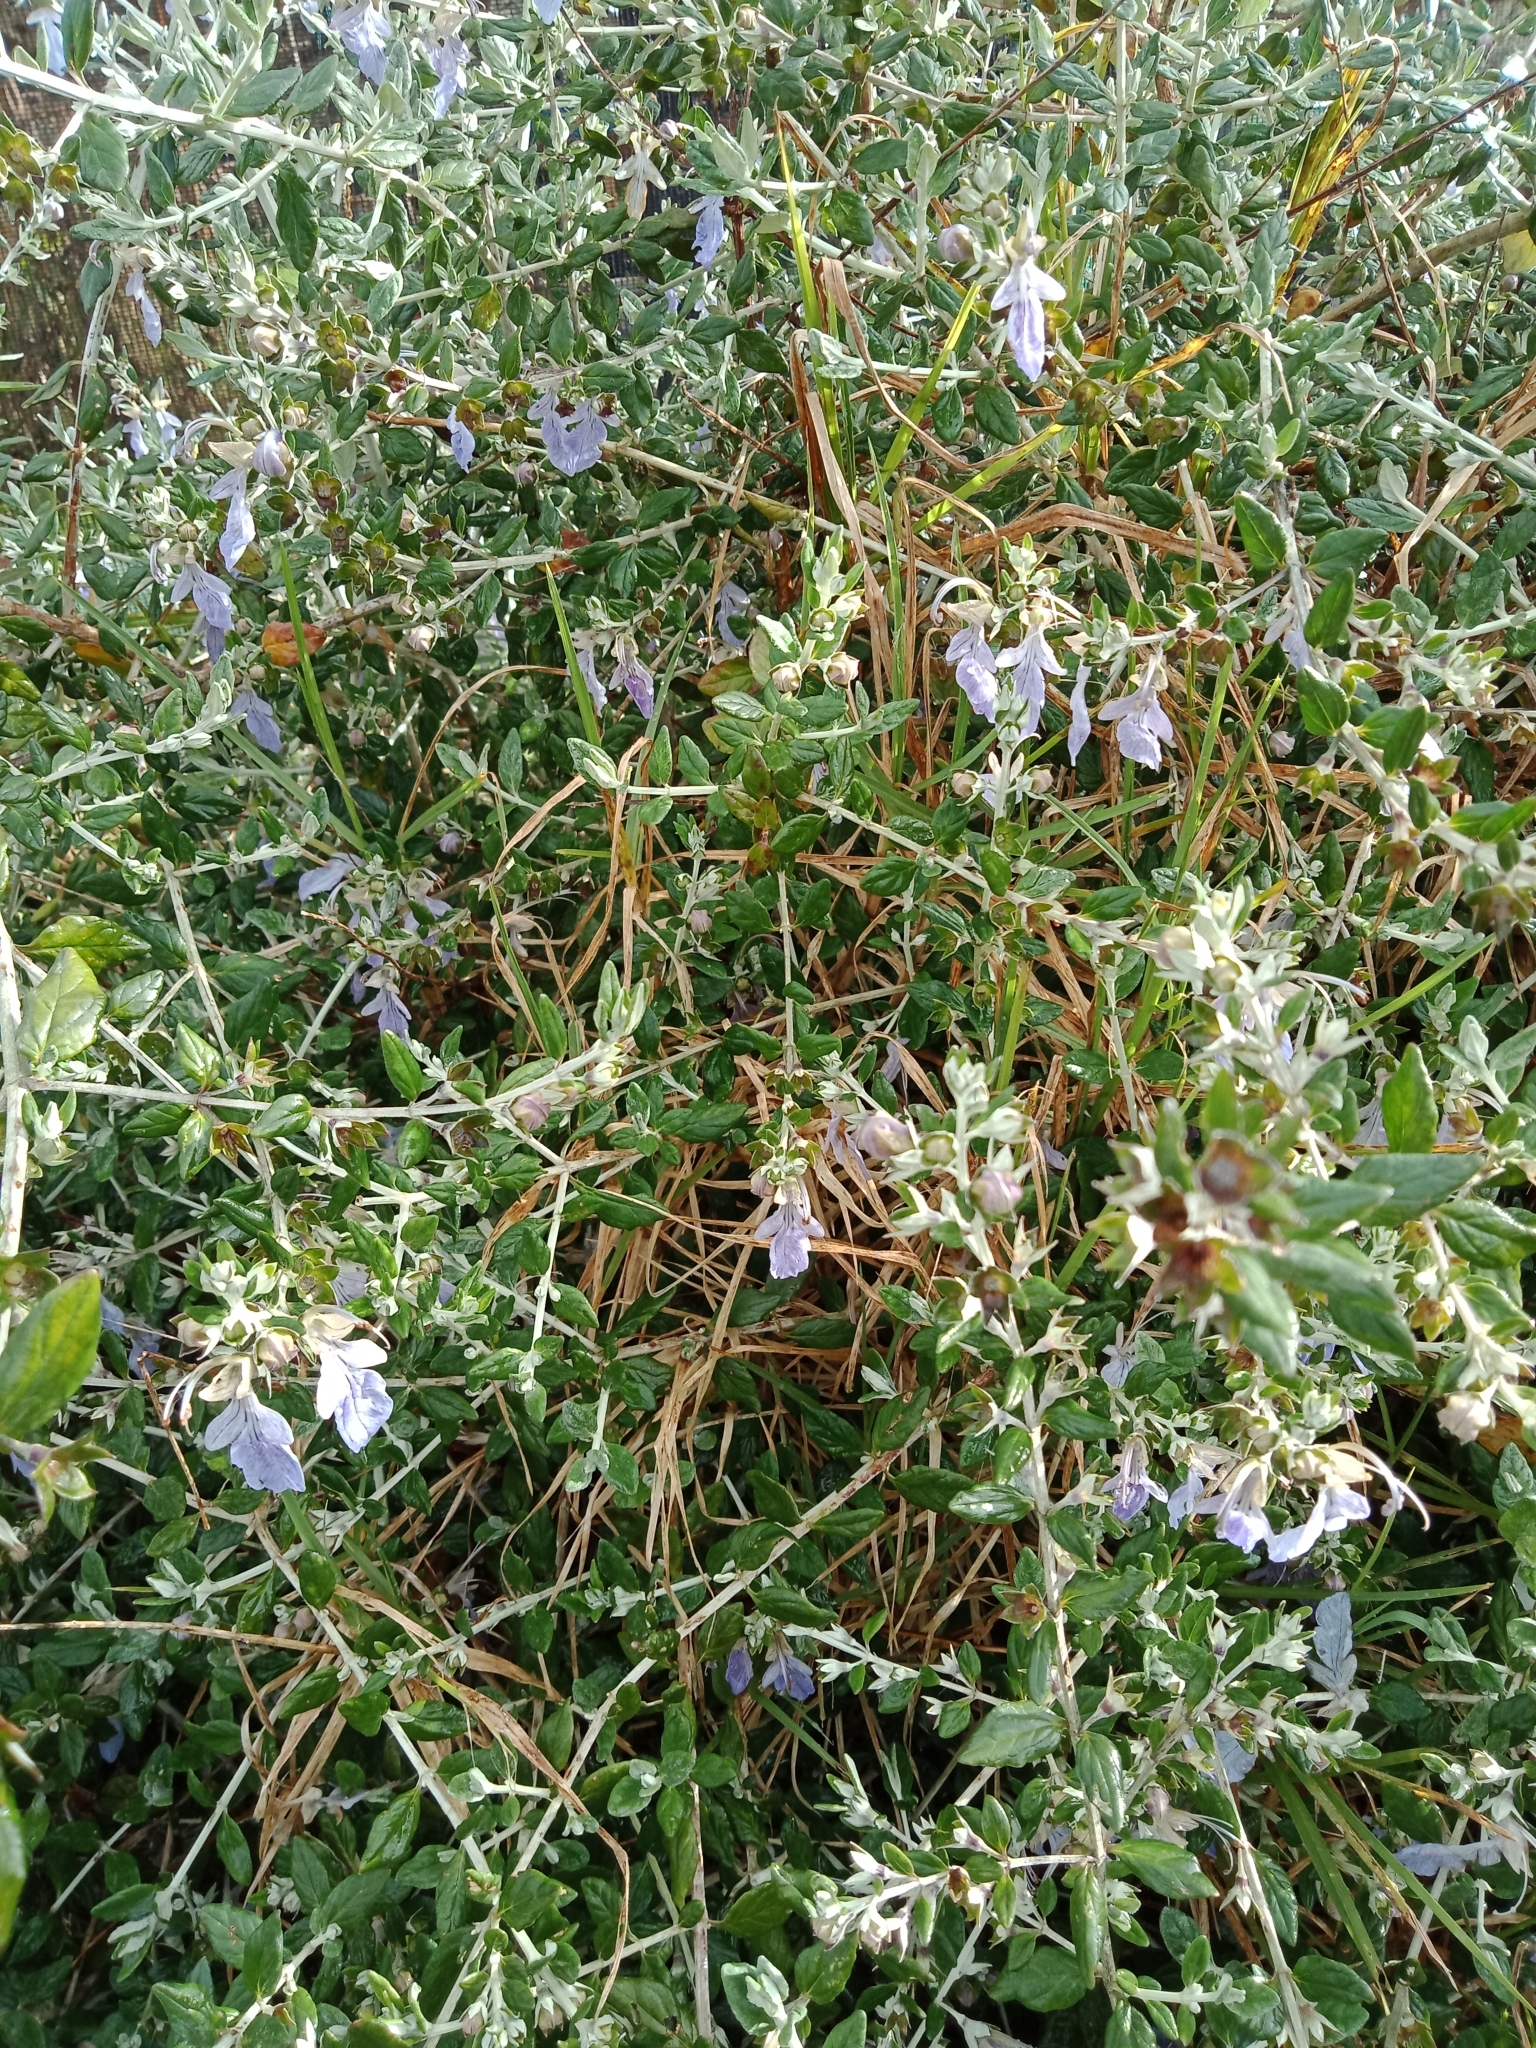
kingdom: Plantae
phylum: Tracheophyta
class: Magnoliopsida
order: Lamiales
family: Lamiaceae
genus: Teucrium
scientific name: Teucrium fruticans
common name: Shrubby germander
